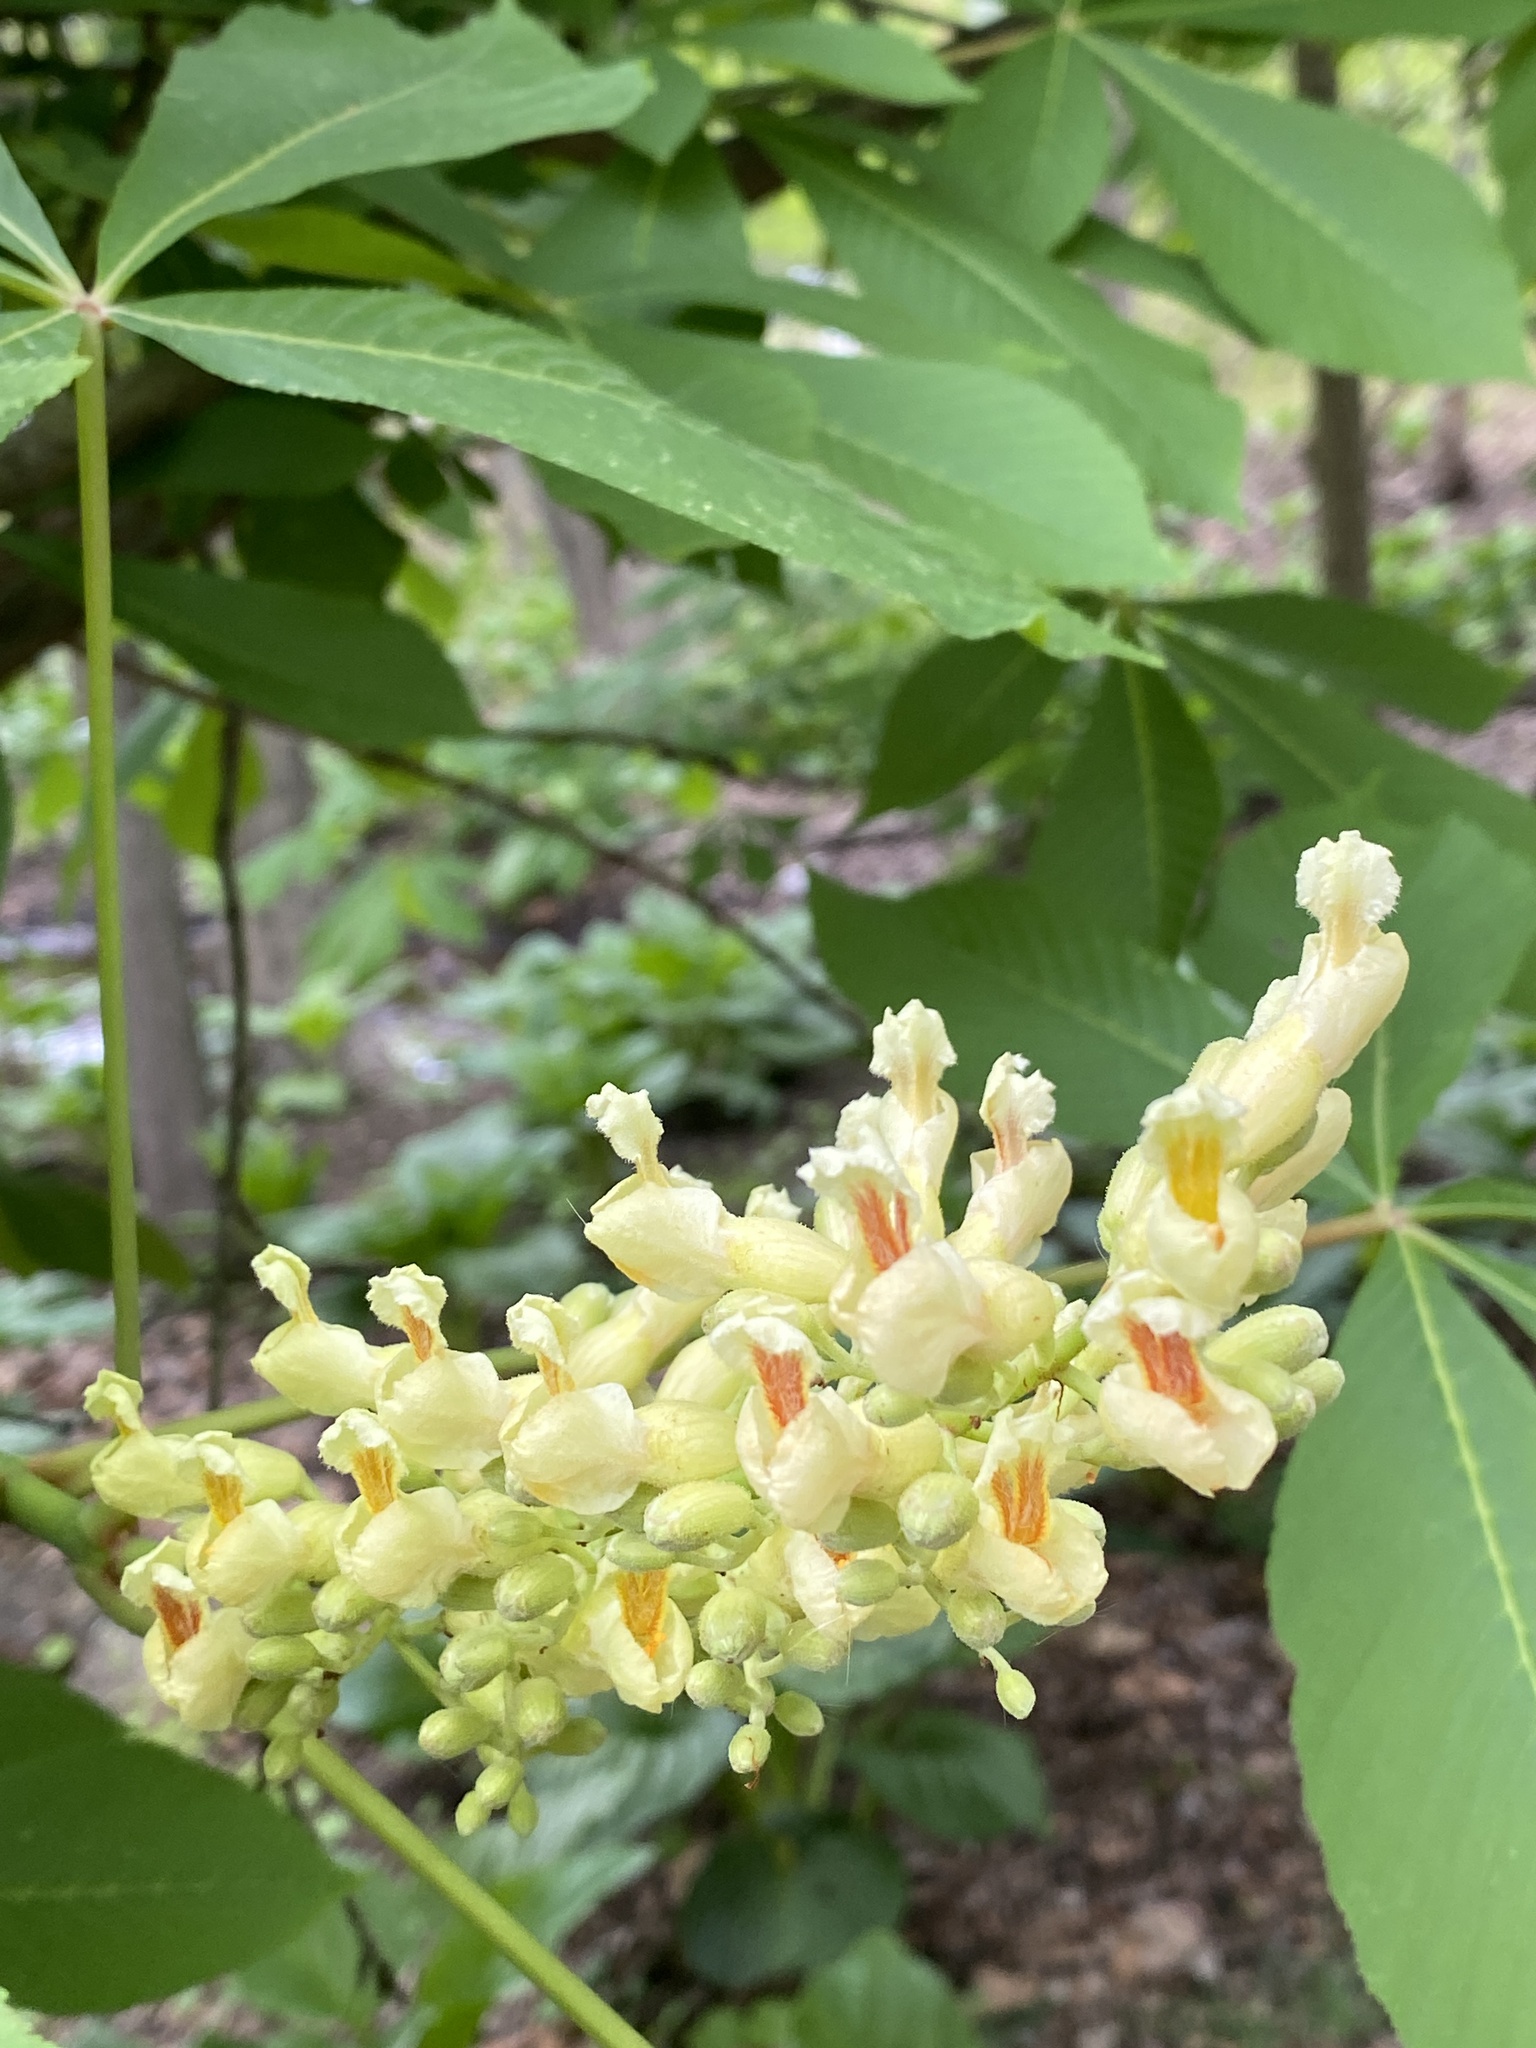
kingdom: Plantae
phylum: Tracheophyta
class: Magnoliopsida
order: Sapindales
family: Sapindaceae
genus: Aesculus
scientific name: Aesculus flava
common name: Yellow buckeye
